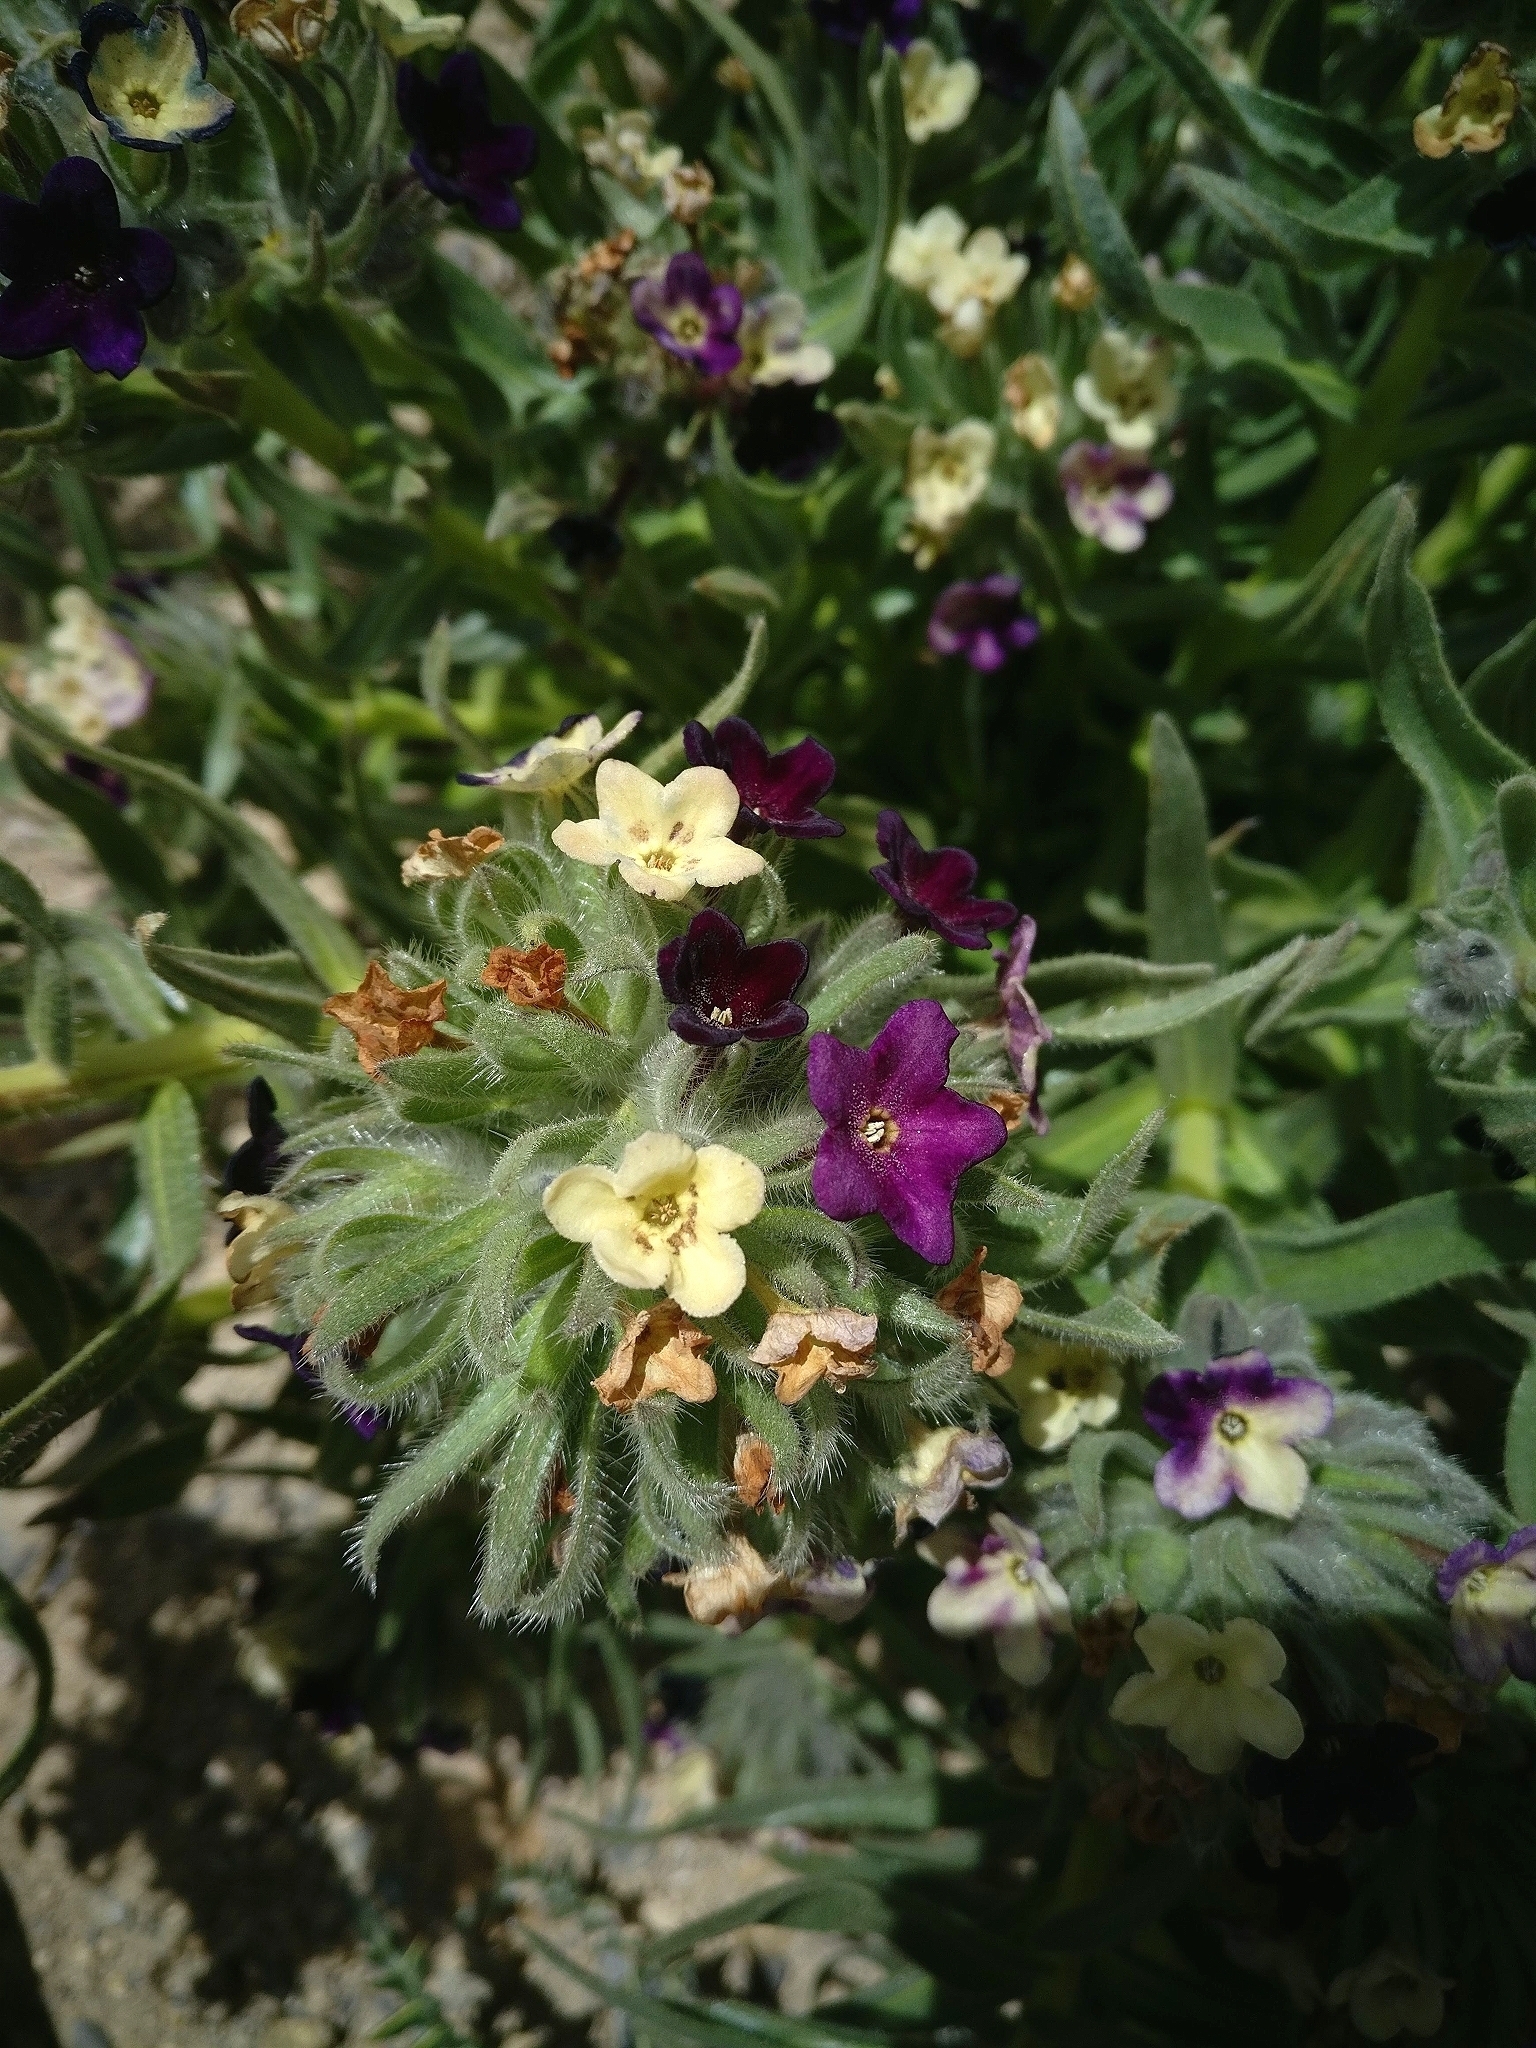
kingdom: Plantae
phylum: Tracheophyta
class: Magnoliopsida
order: Boraginales
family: Boraginaceae
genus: Arnebia
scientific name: Arnebia euchroma
